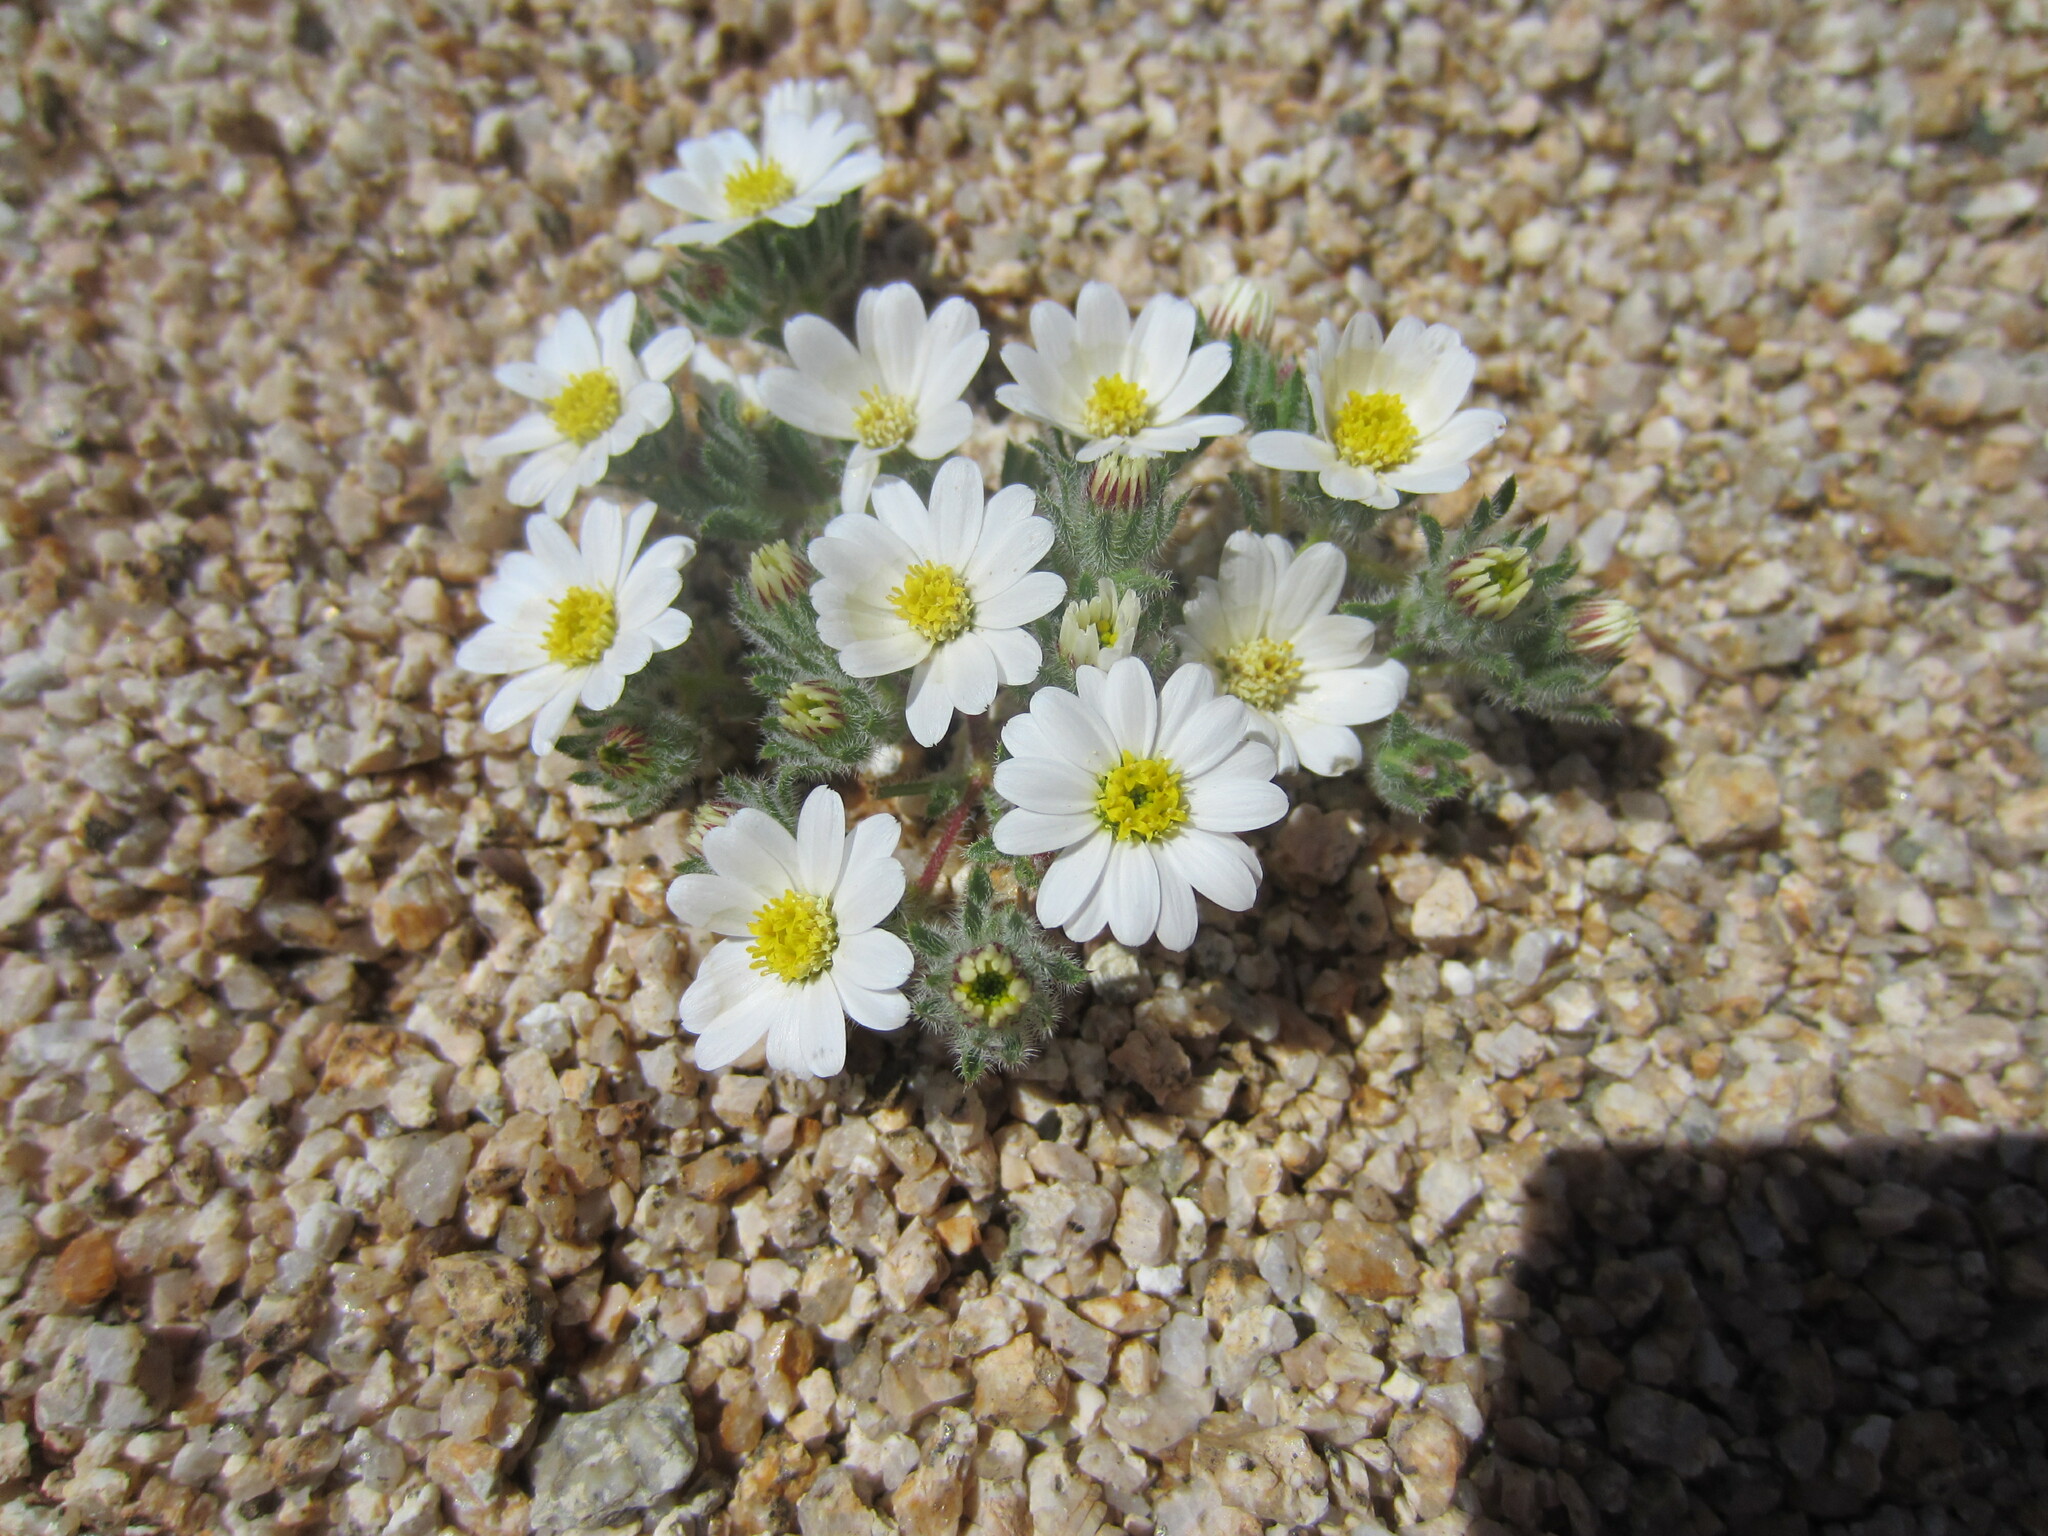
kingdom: Plantae
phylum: Tracheophyta
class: Magnoliopsida
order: Asterales
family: Asteraceae
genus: Monoptilon
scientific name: Monoptilon bellioides
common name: Bristly desertstar
